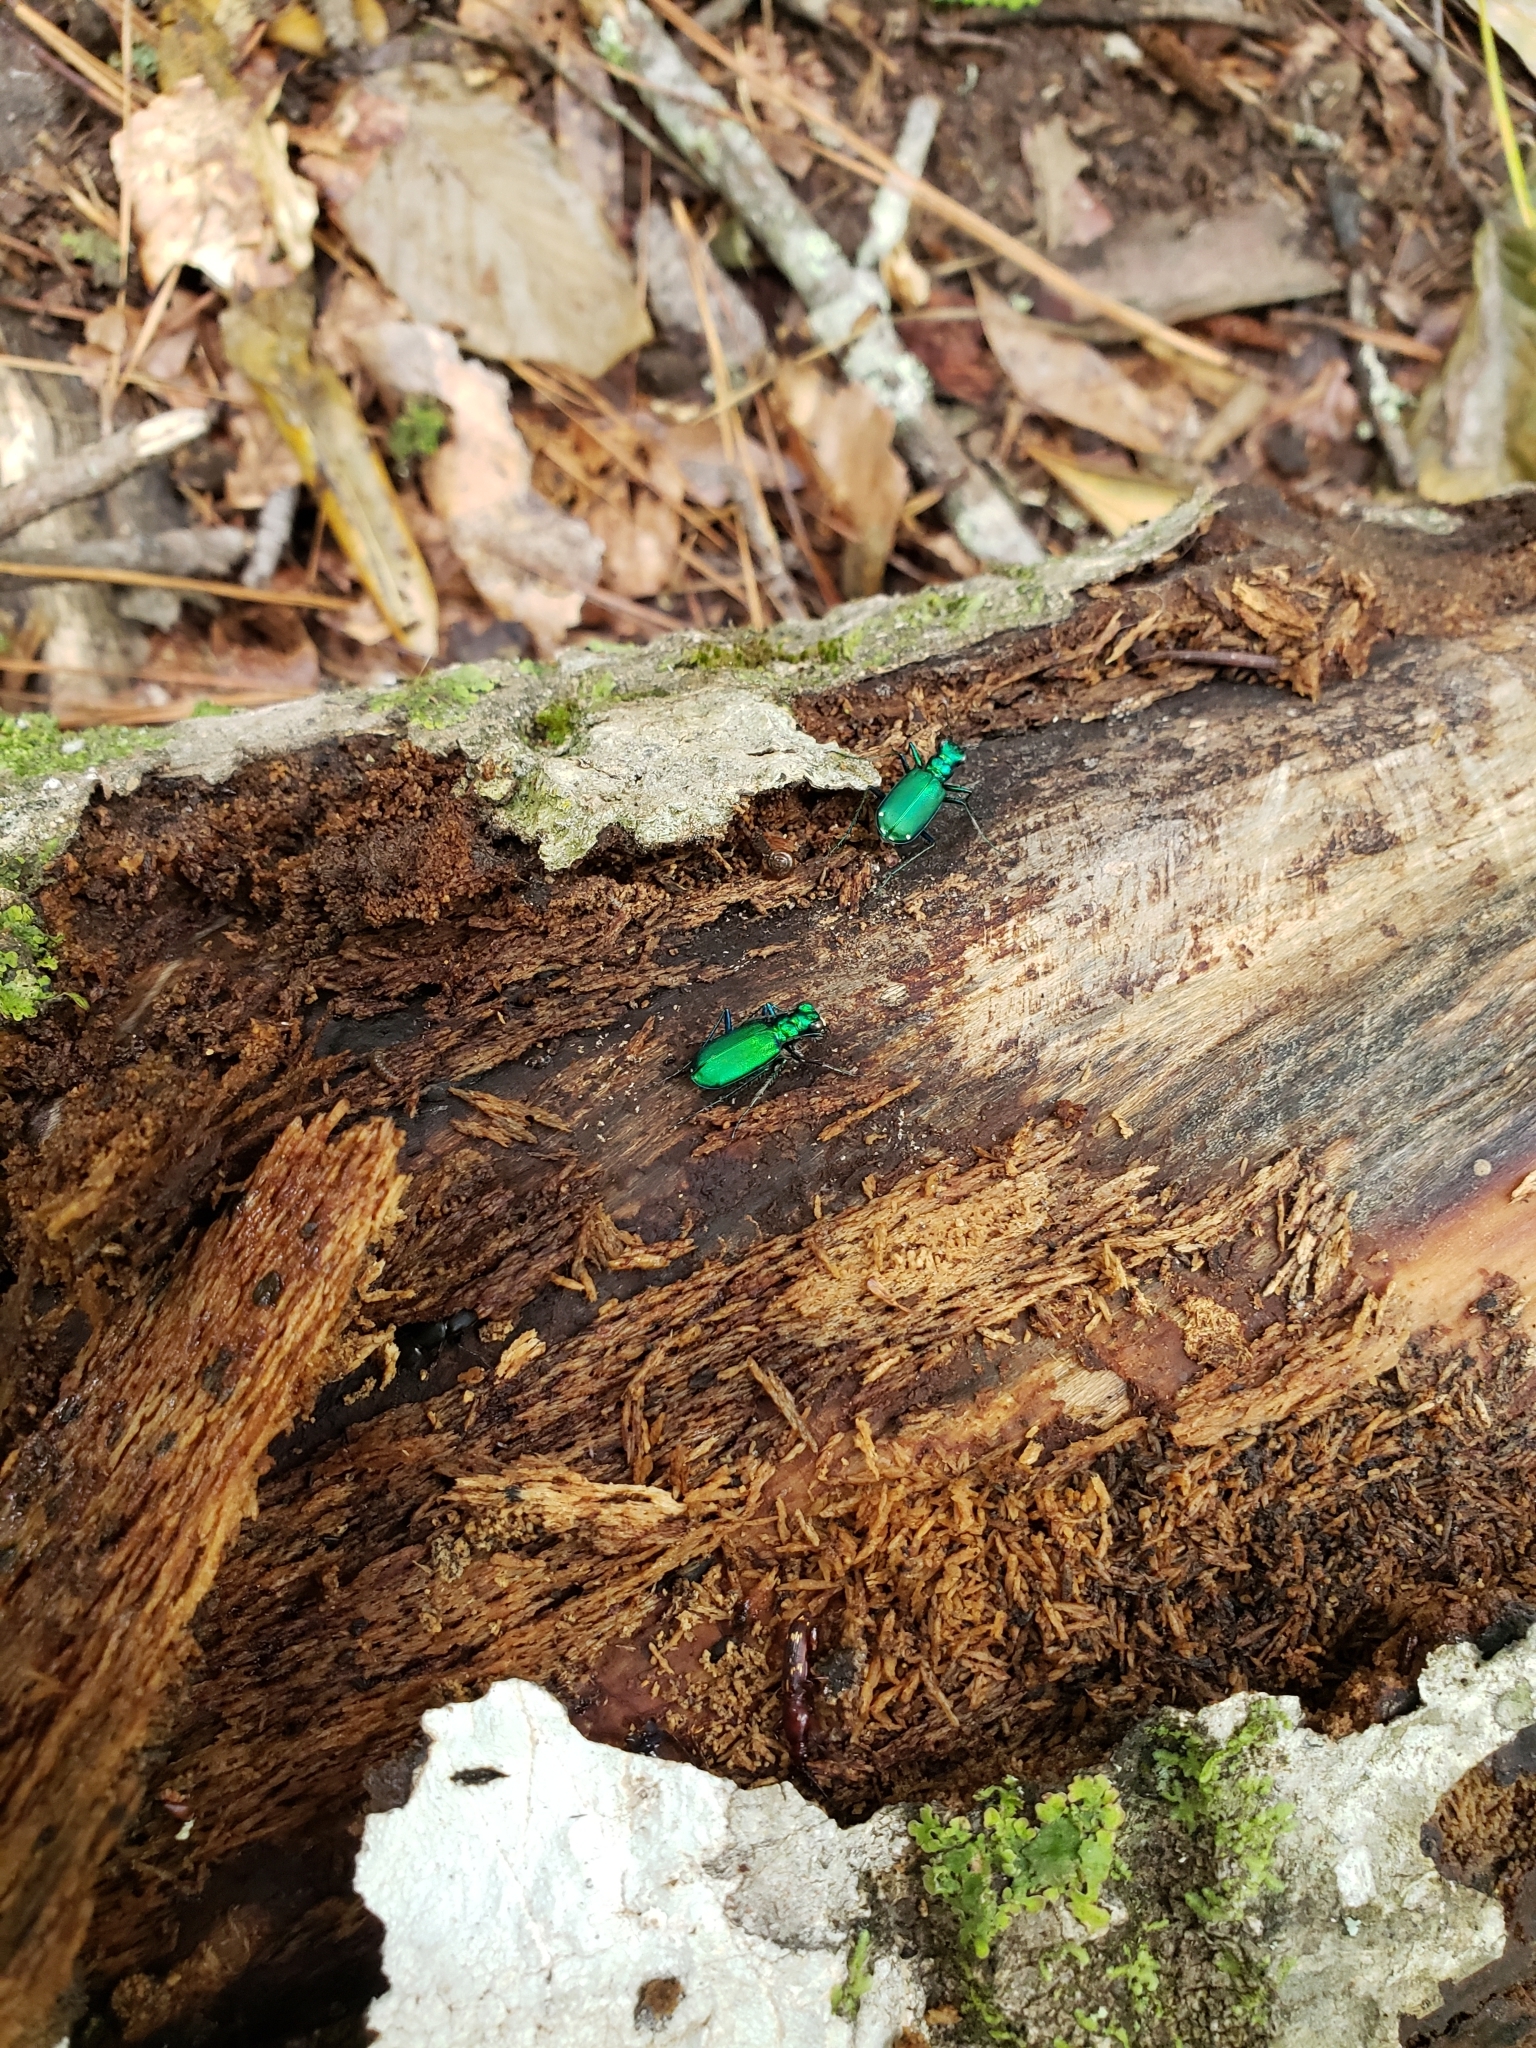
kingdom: Animalia
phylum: Arthropoda
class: Insecta
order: Coleoptera
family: Carabidae
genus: Cicindela
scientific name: Cicindela sexguttata
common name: Six-spotted tiger beetle
